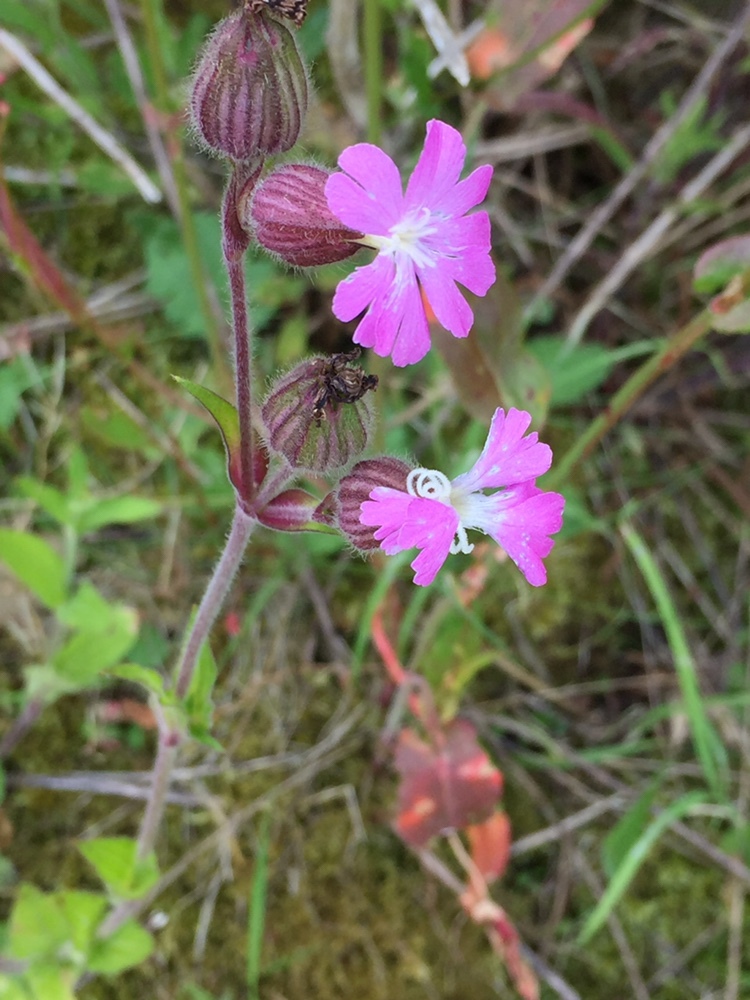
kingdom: Plantae
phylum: Tracheophyta
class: Magnoliopsida
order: Caryophyllales
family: Caryophyllaceae
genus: Silene
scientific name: Silene dioica
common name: Red campion
